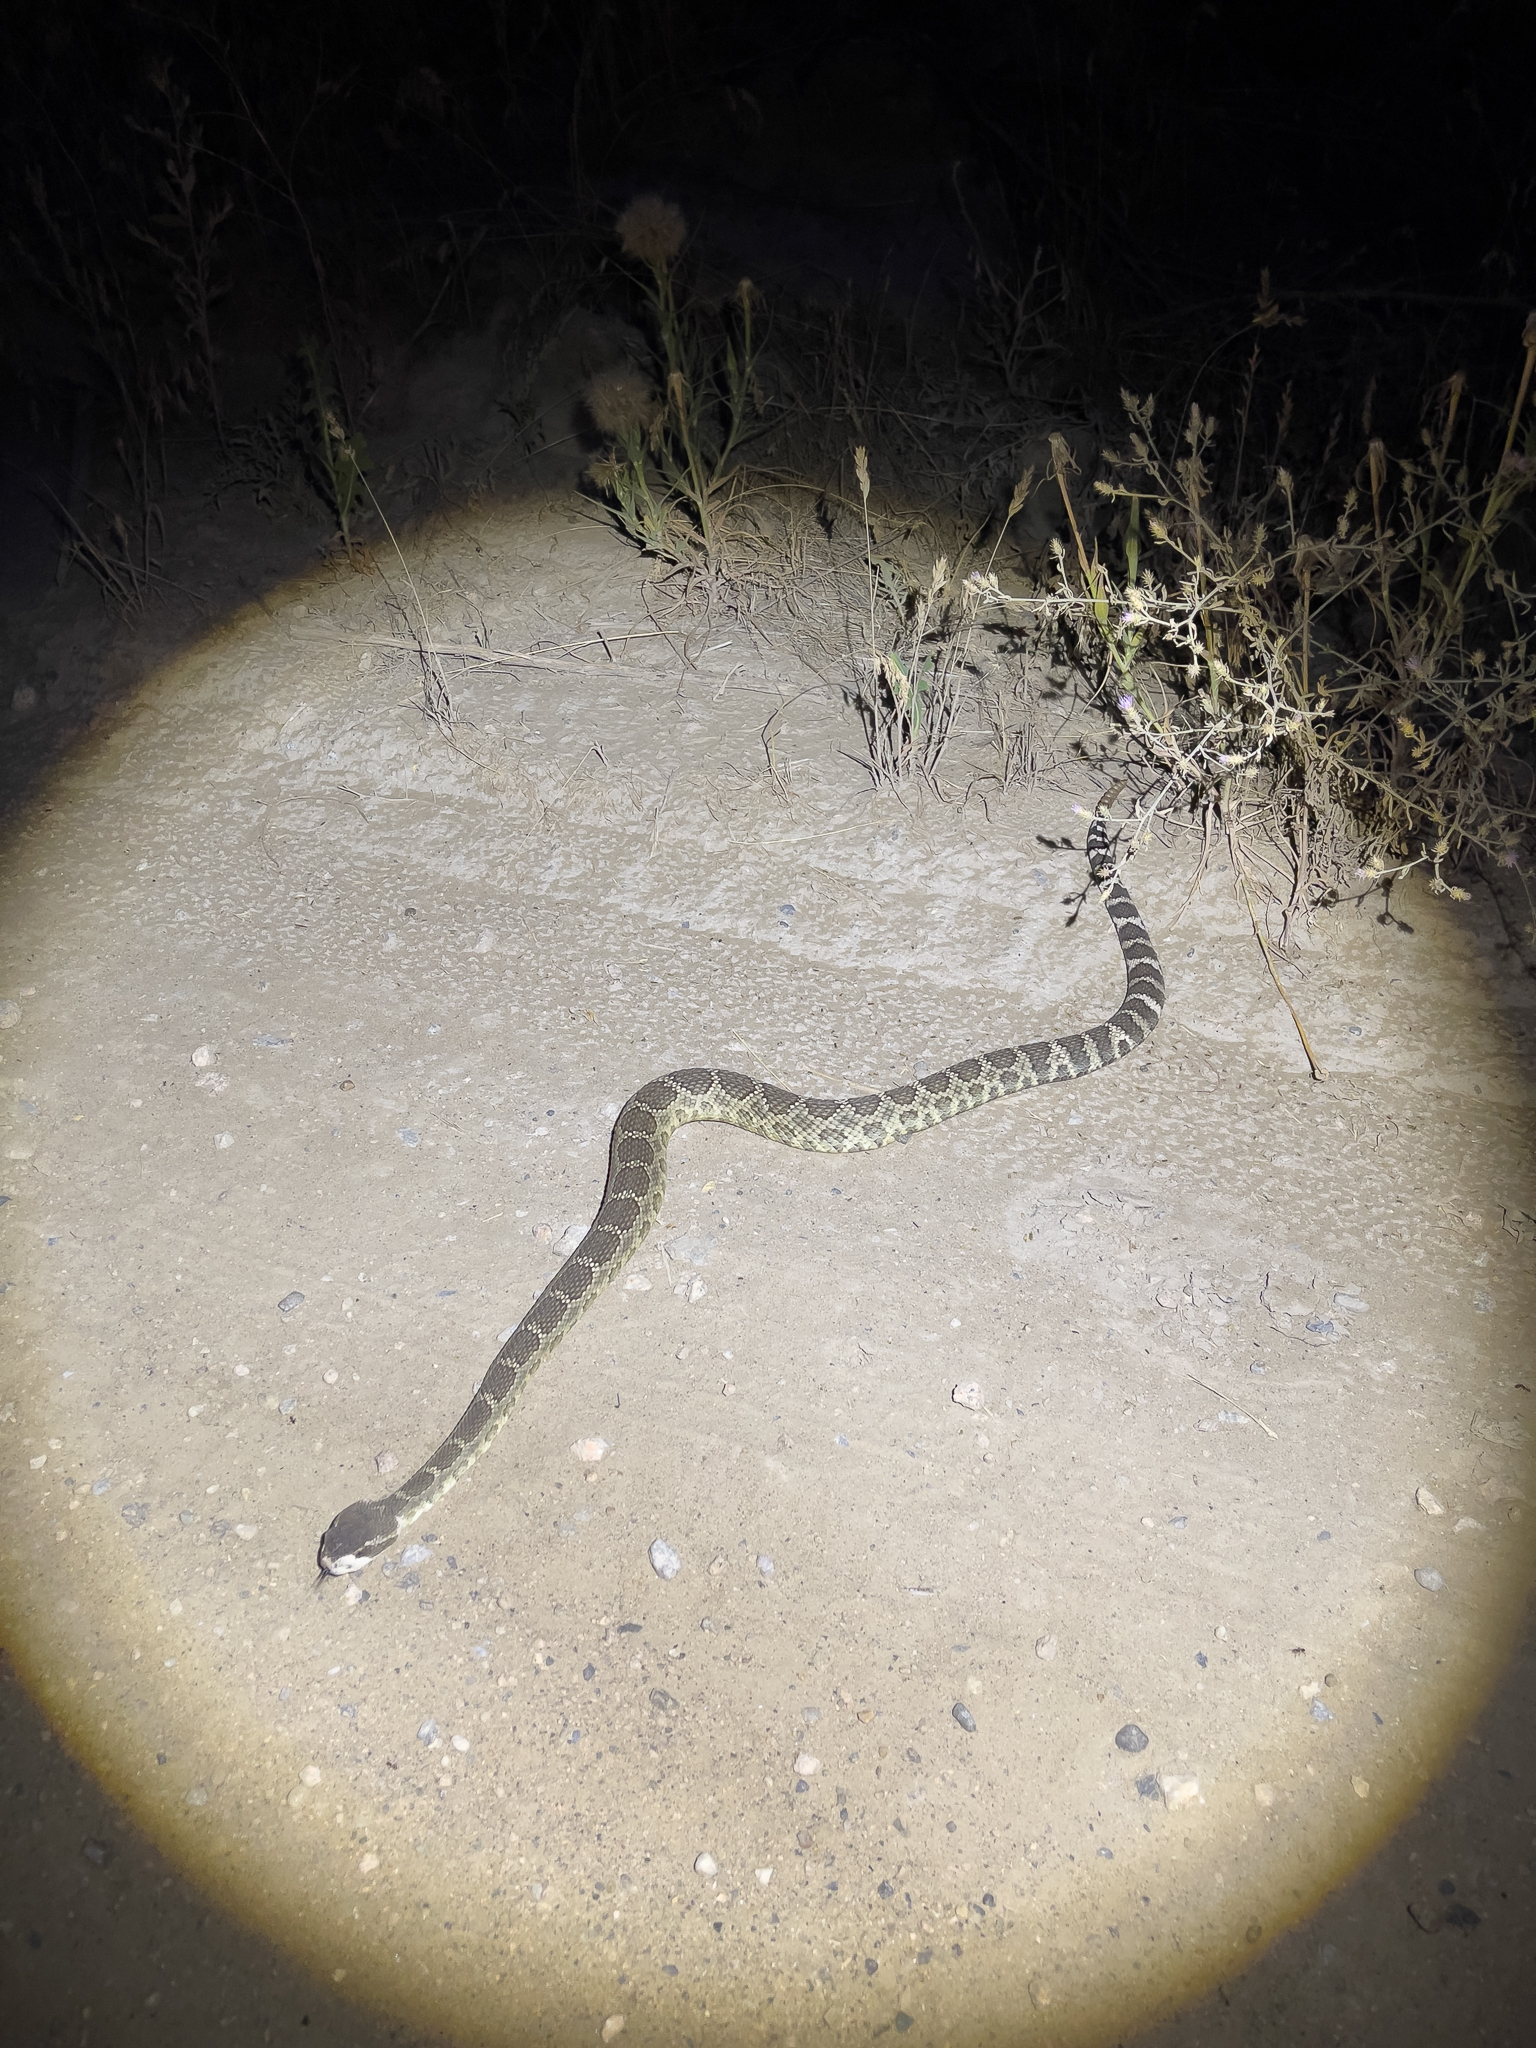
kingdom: Animalia
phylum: Chordata
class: Squamata
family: Viperidae
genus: Crotalus
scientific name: Crotalus oreganus
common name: Abyssus
